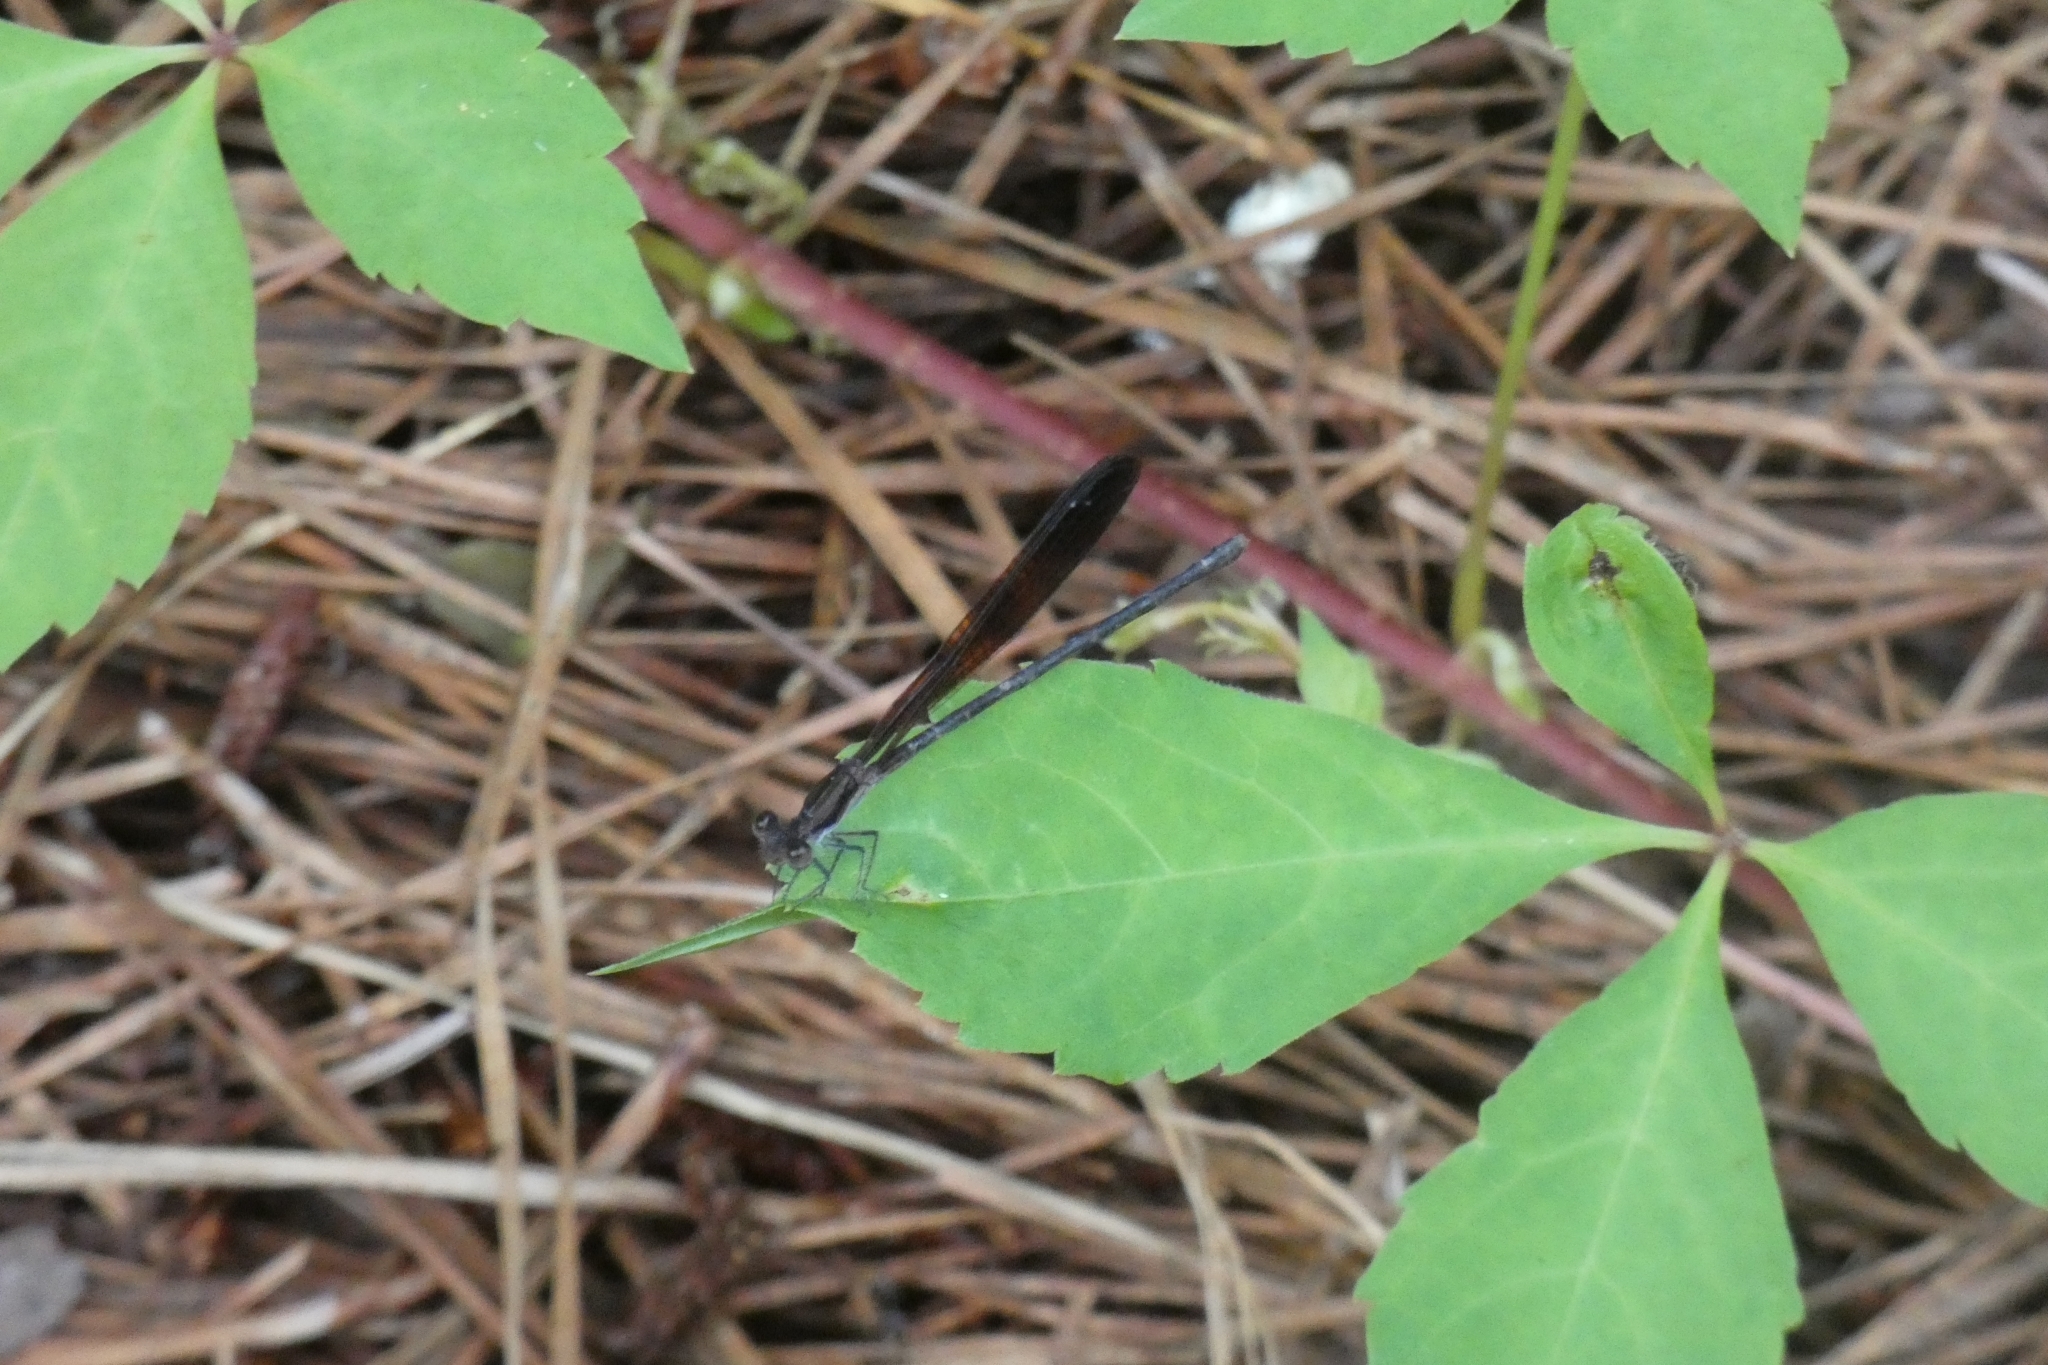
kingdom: Animalia
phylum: Arthropoda
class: Insecta
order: Odonata
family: Coenagrionidae
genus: Argia
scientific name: Argia fumipennis
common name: Variable dancer
